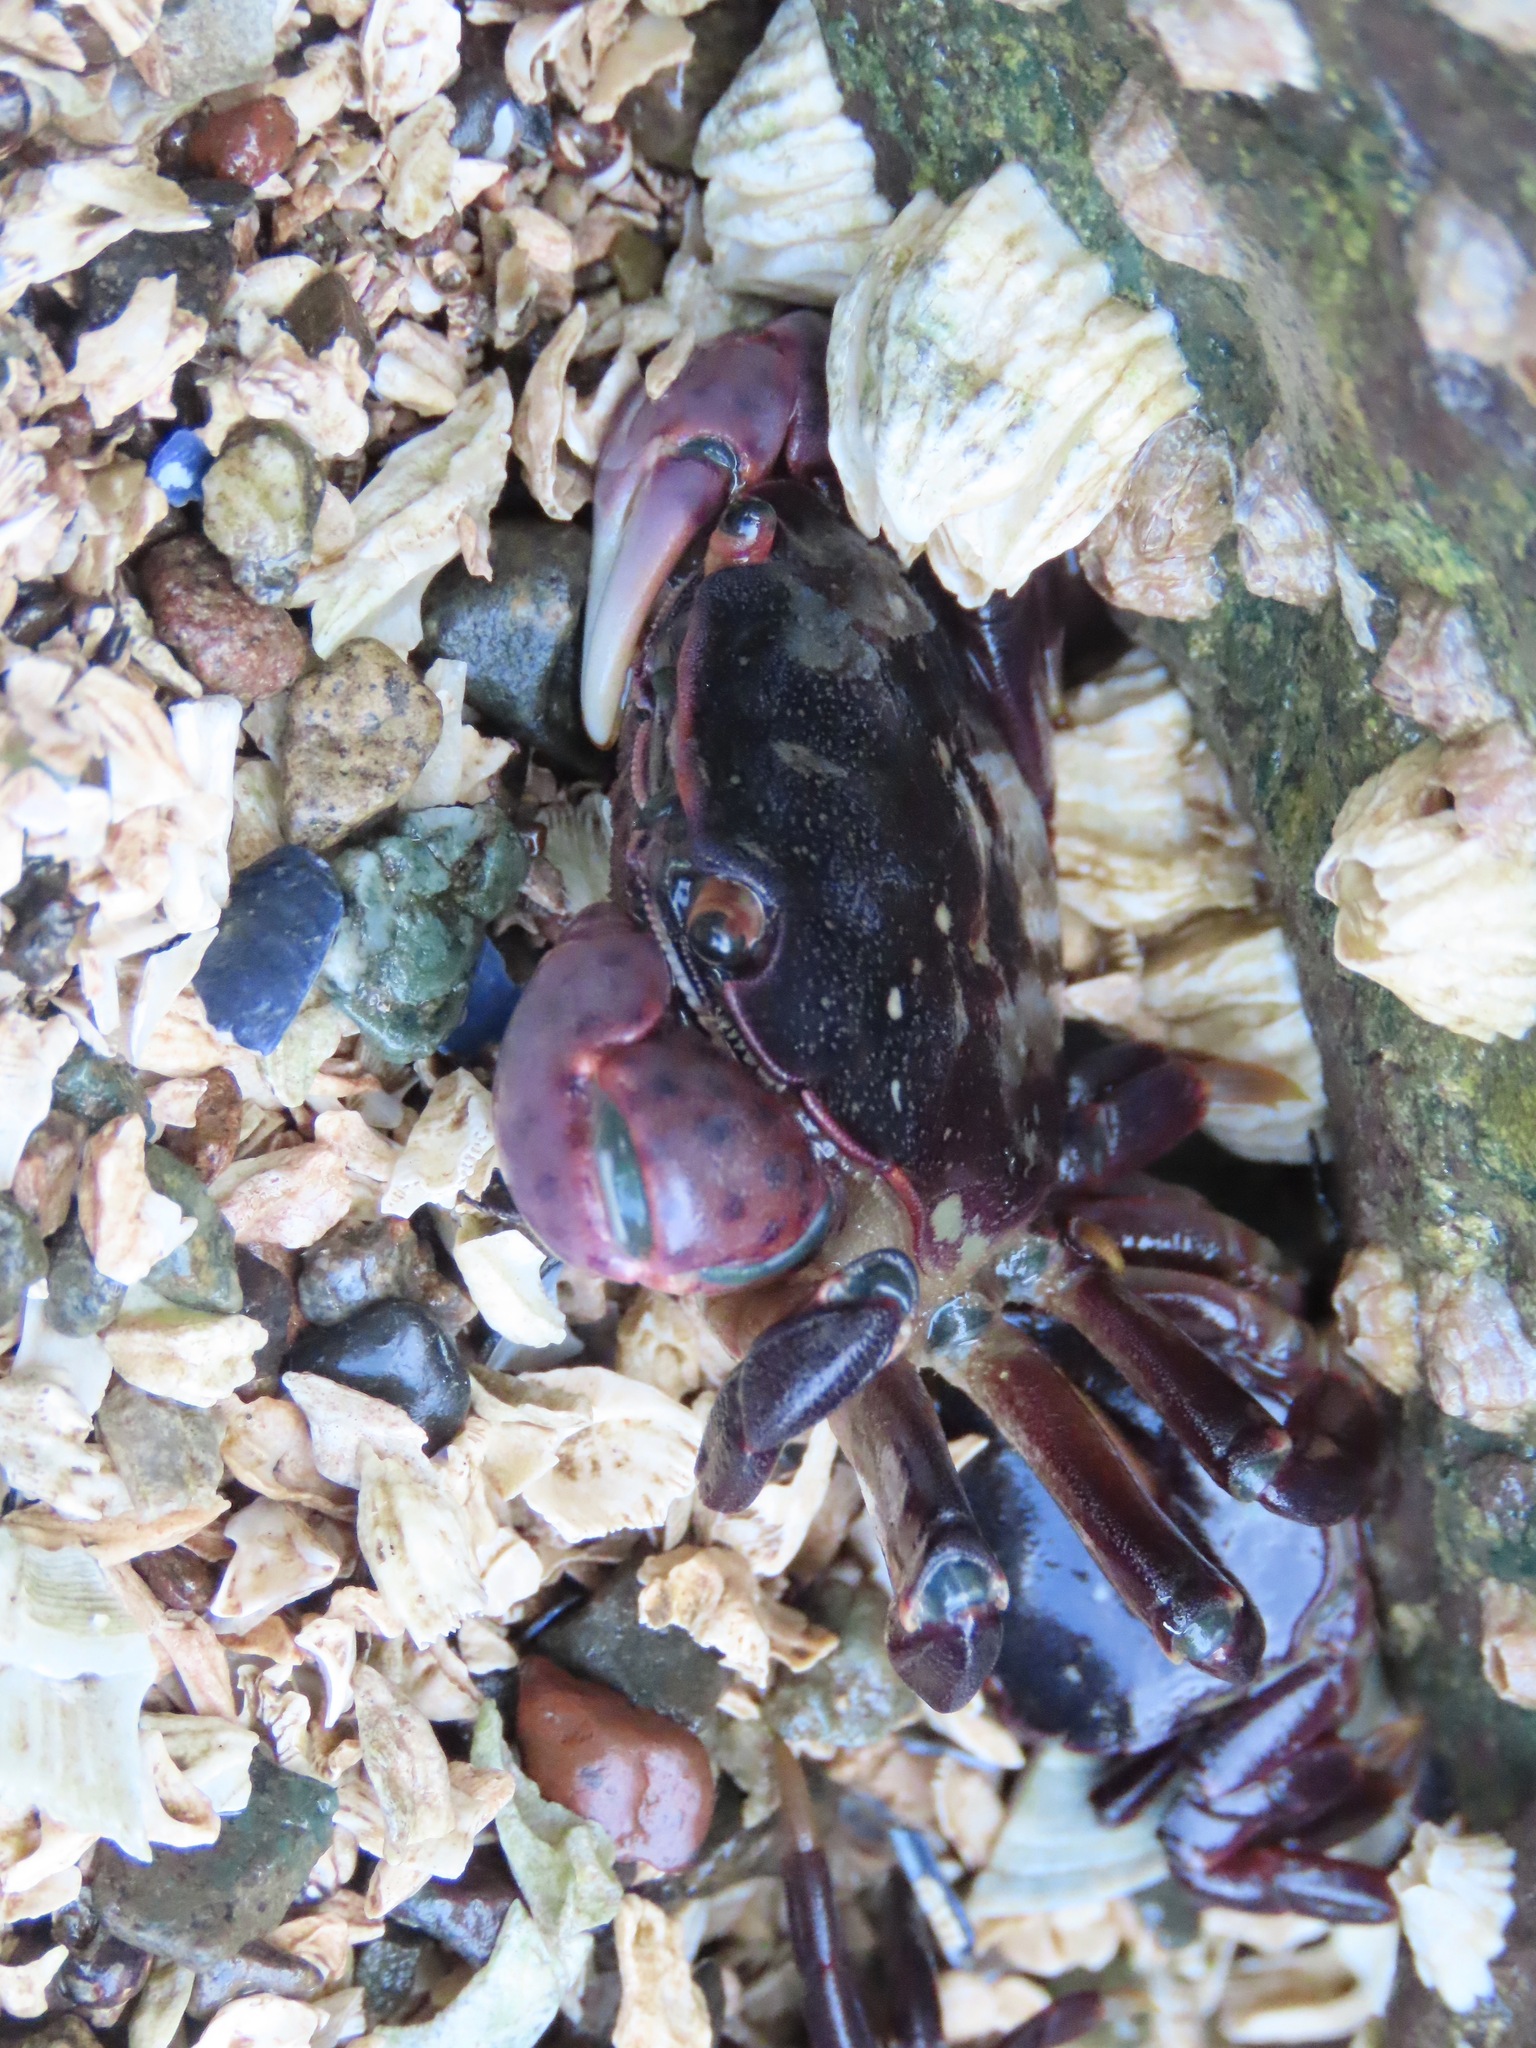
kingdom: Animalia
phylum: Arthropoda
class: Malacostraca
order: Decapoda
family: Varunidae
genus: Hemigrapsus
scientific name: Hemigrapsus nudus
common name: Purple shore crab
